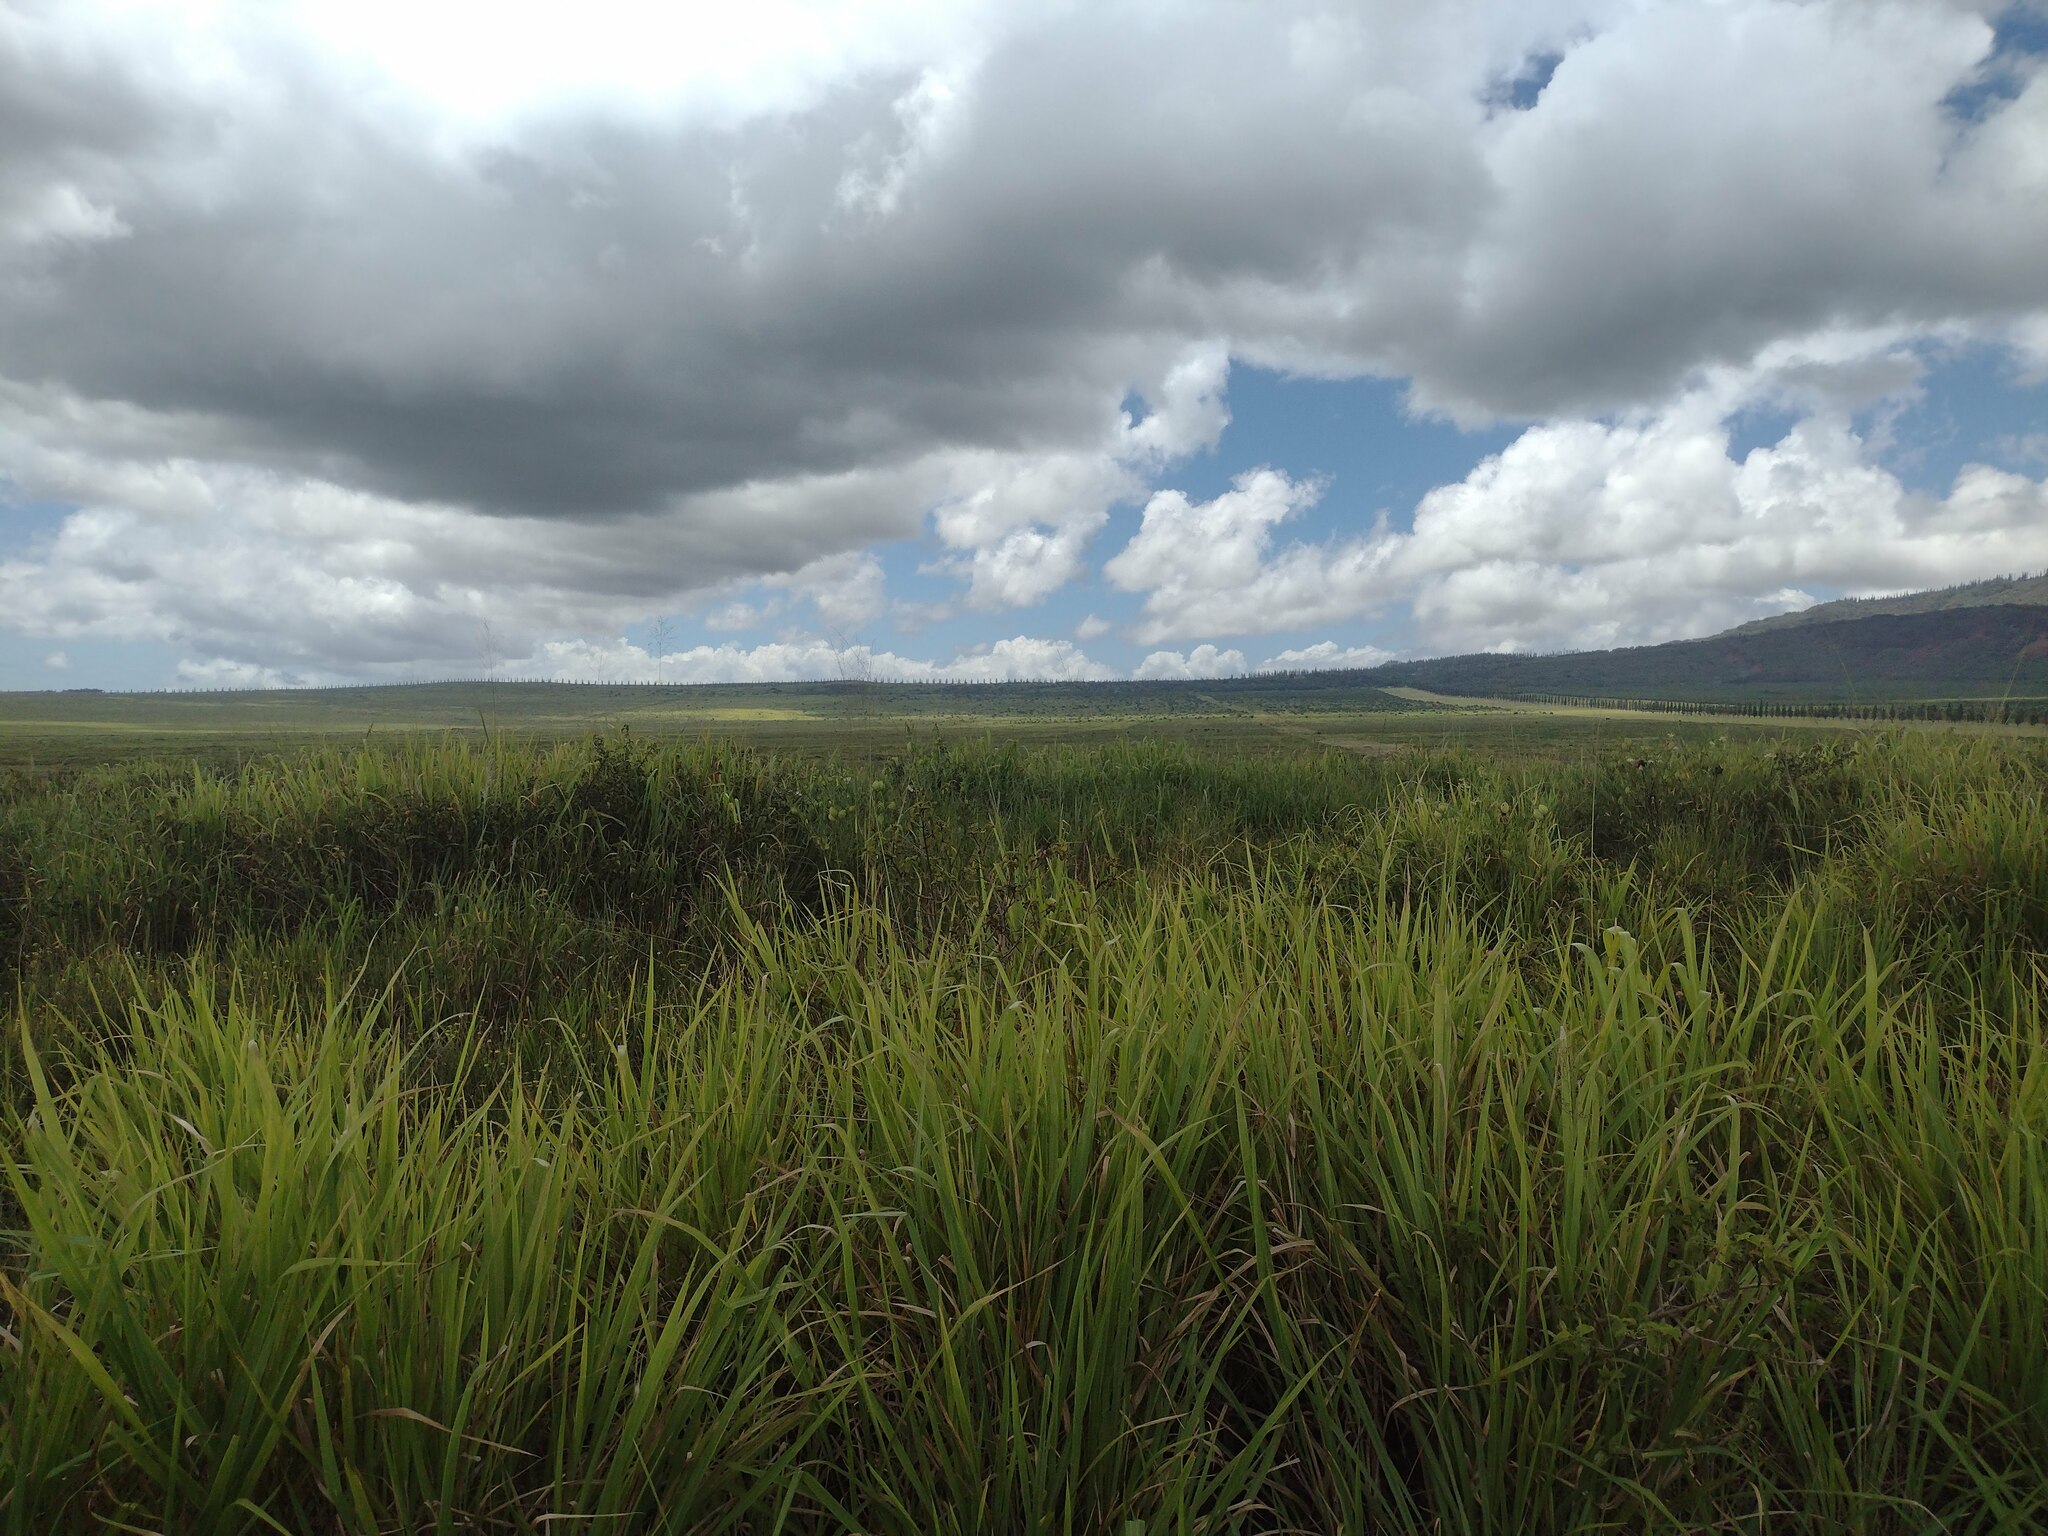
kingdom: Plantae
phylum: Tracheophyta
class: Liliopsida
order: Poales
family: Poaceae
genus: Megathyrsus
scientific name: Megathyrsus maximus
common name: Guineagrass
